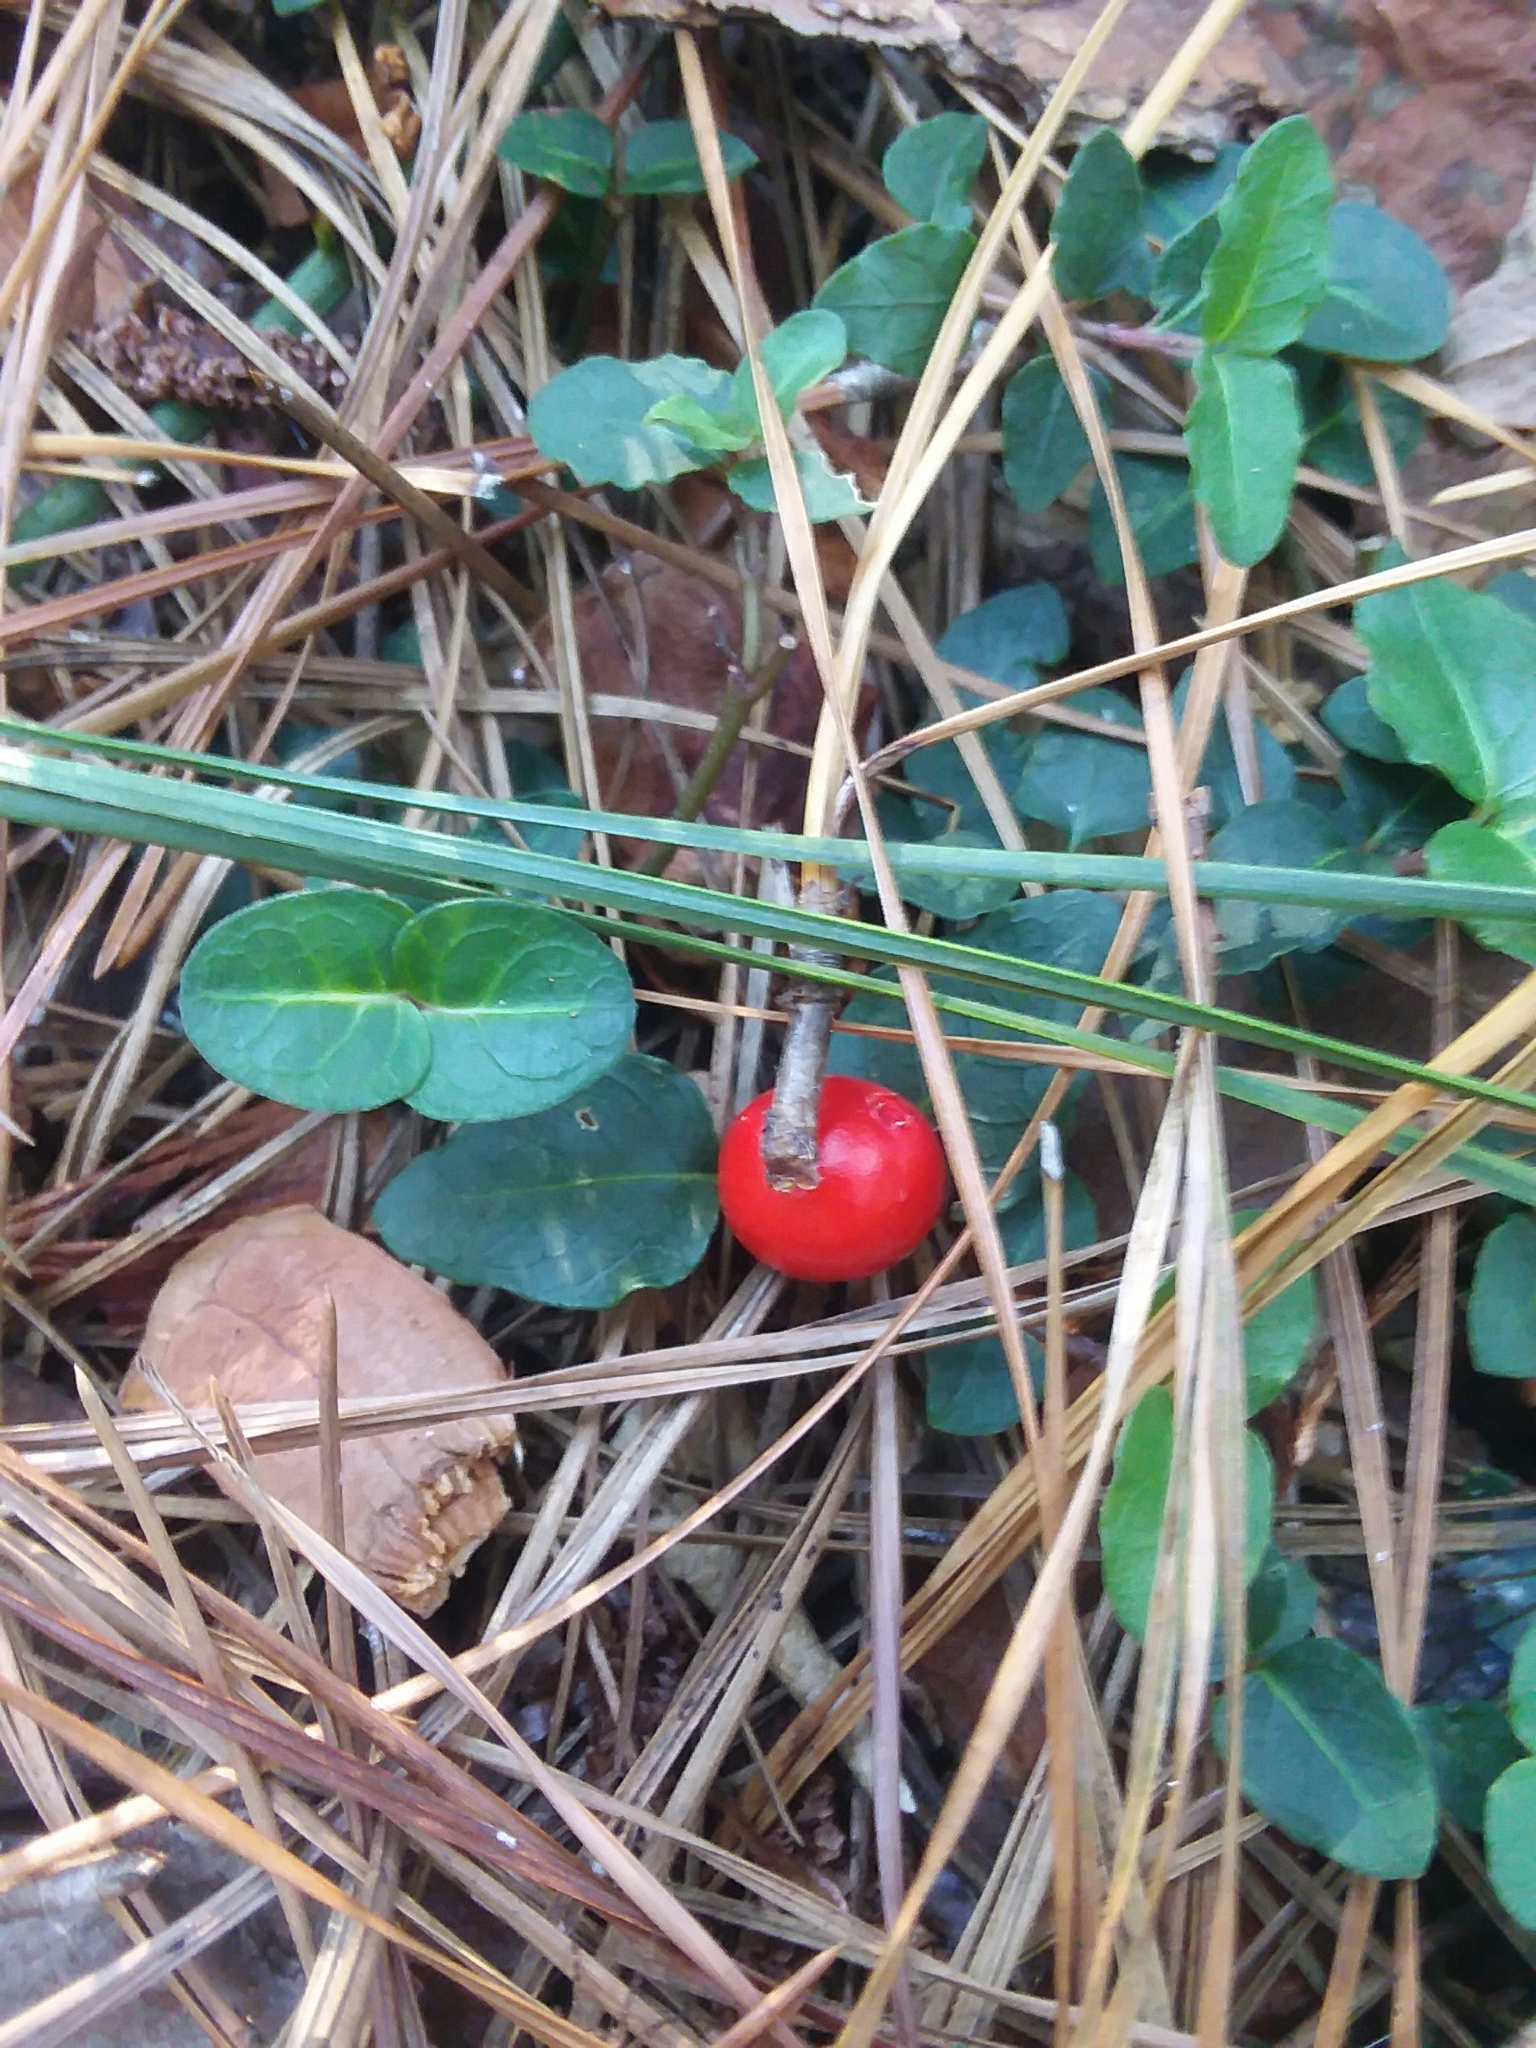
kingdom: Plantae
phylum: Tracheophyta
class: Magnoliopsida
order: Gentianales
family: Rubiaceae
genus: Mitchella
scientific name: Mitchella repens
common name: Partridge-berry
